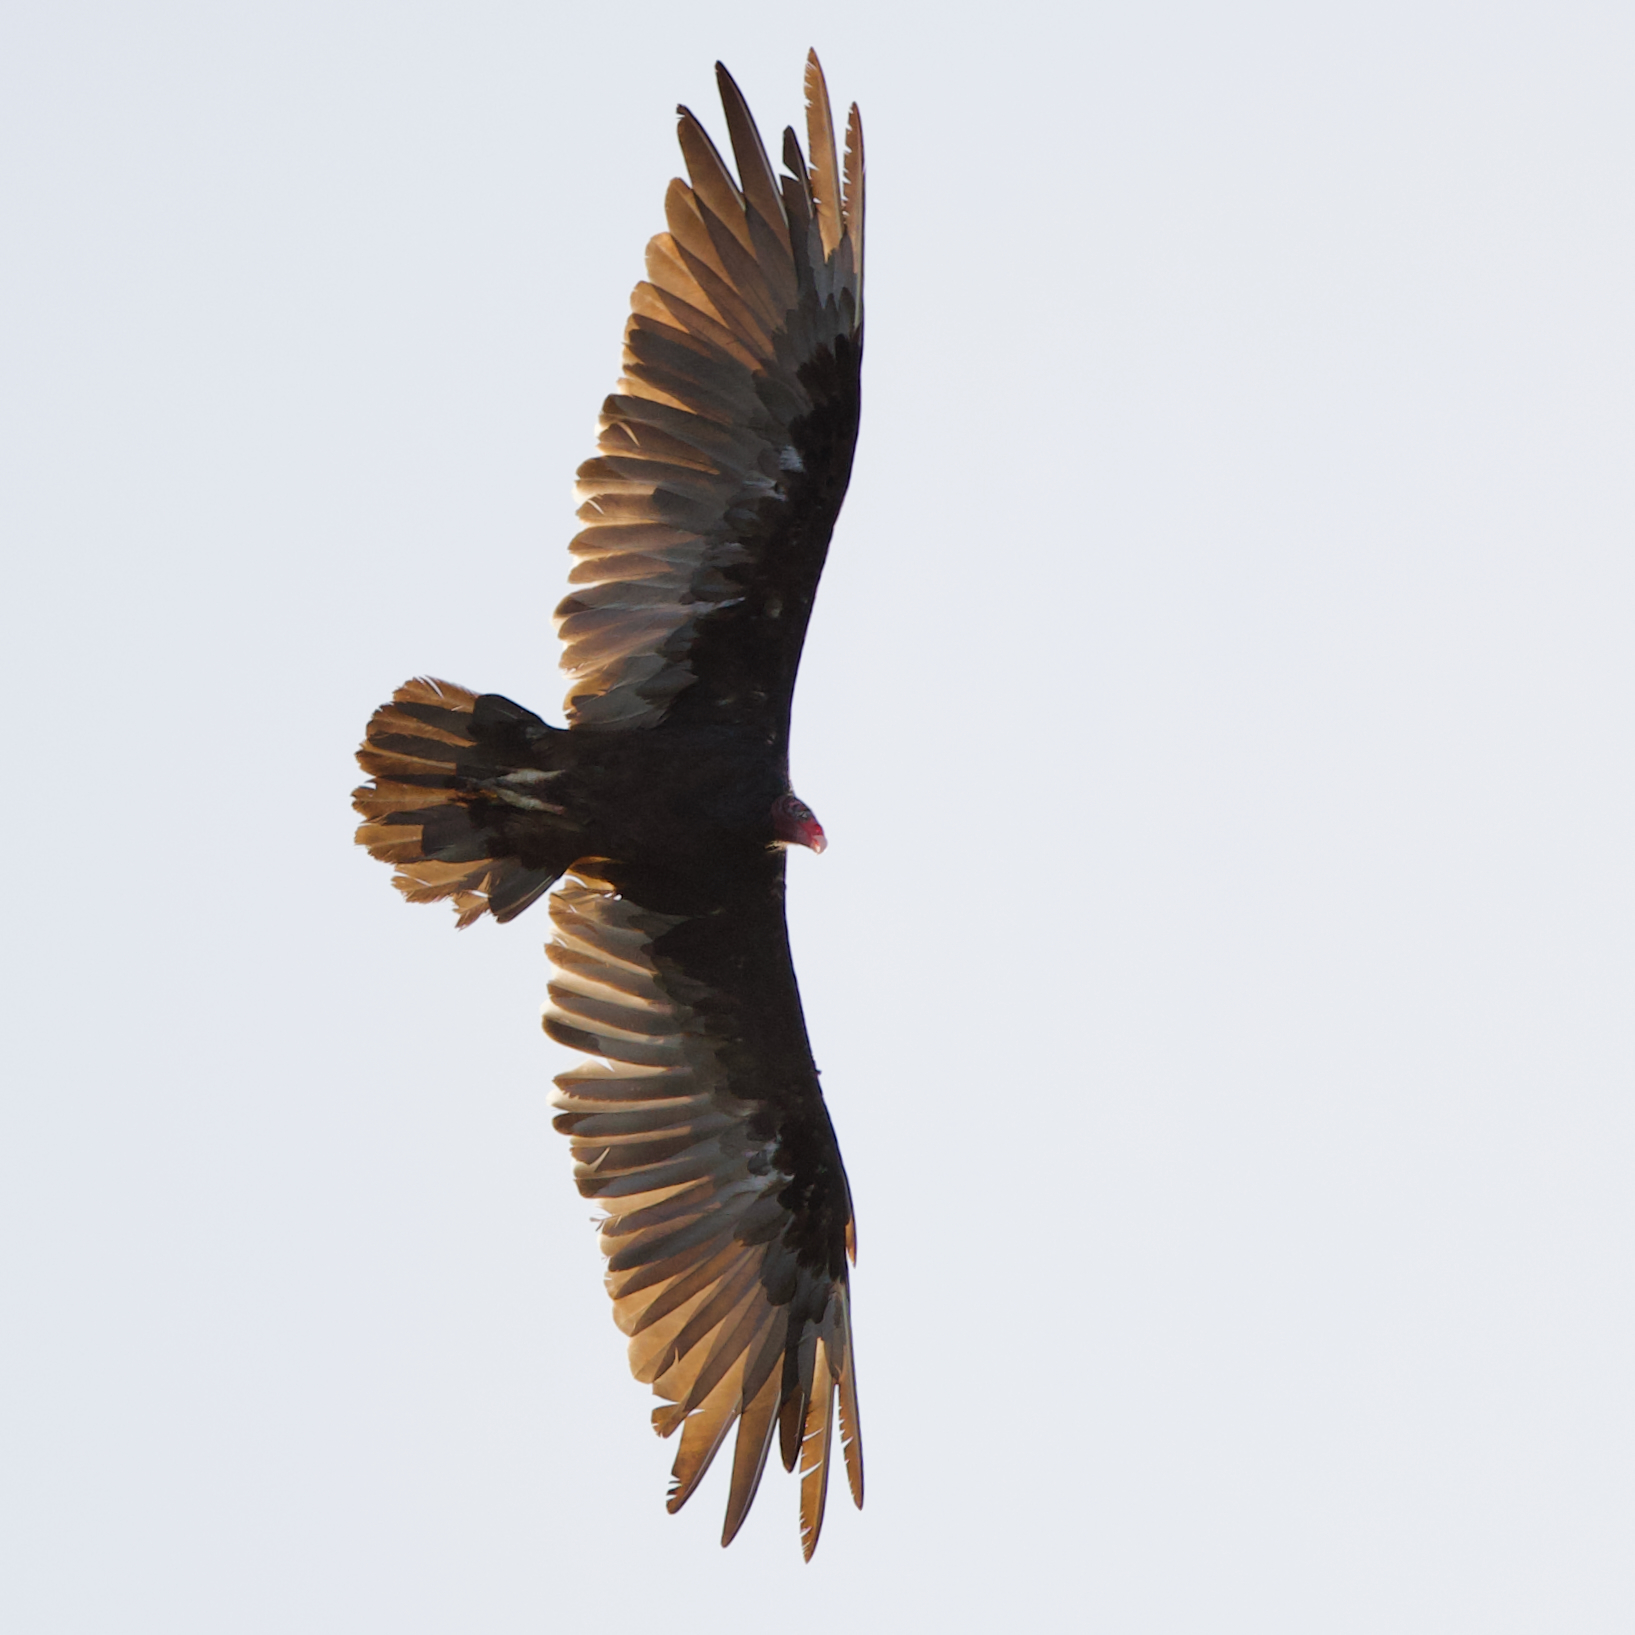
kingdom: Animalia
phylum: Chordata
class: Aves
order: Accipitriformes
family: Cathartidae
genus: Cathartes
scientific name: Cathartes aura
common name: Turkey vulture
